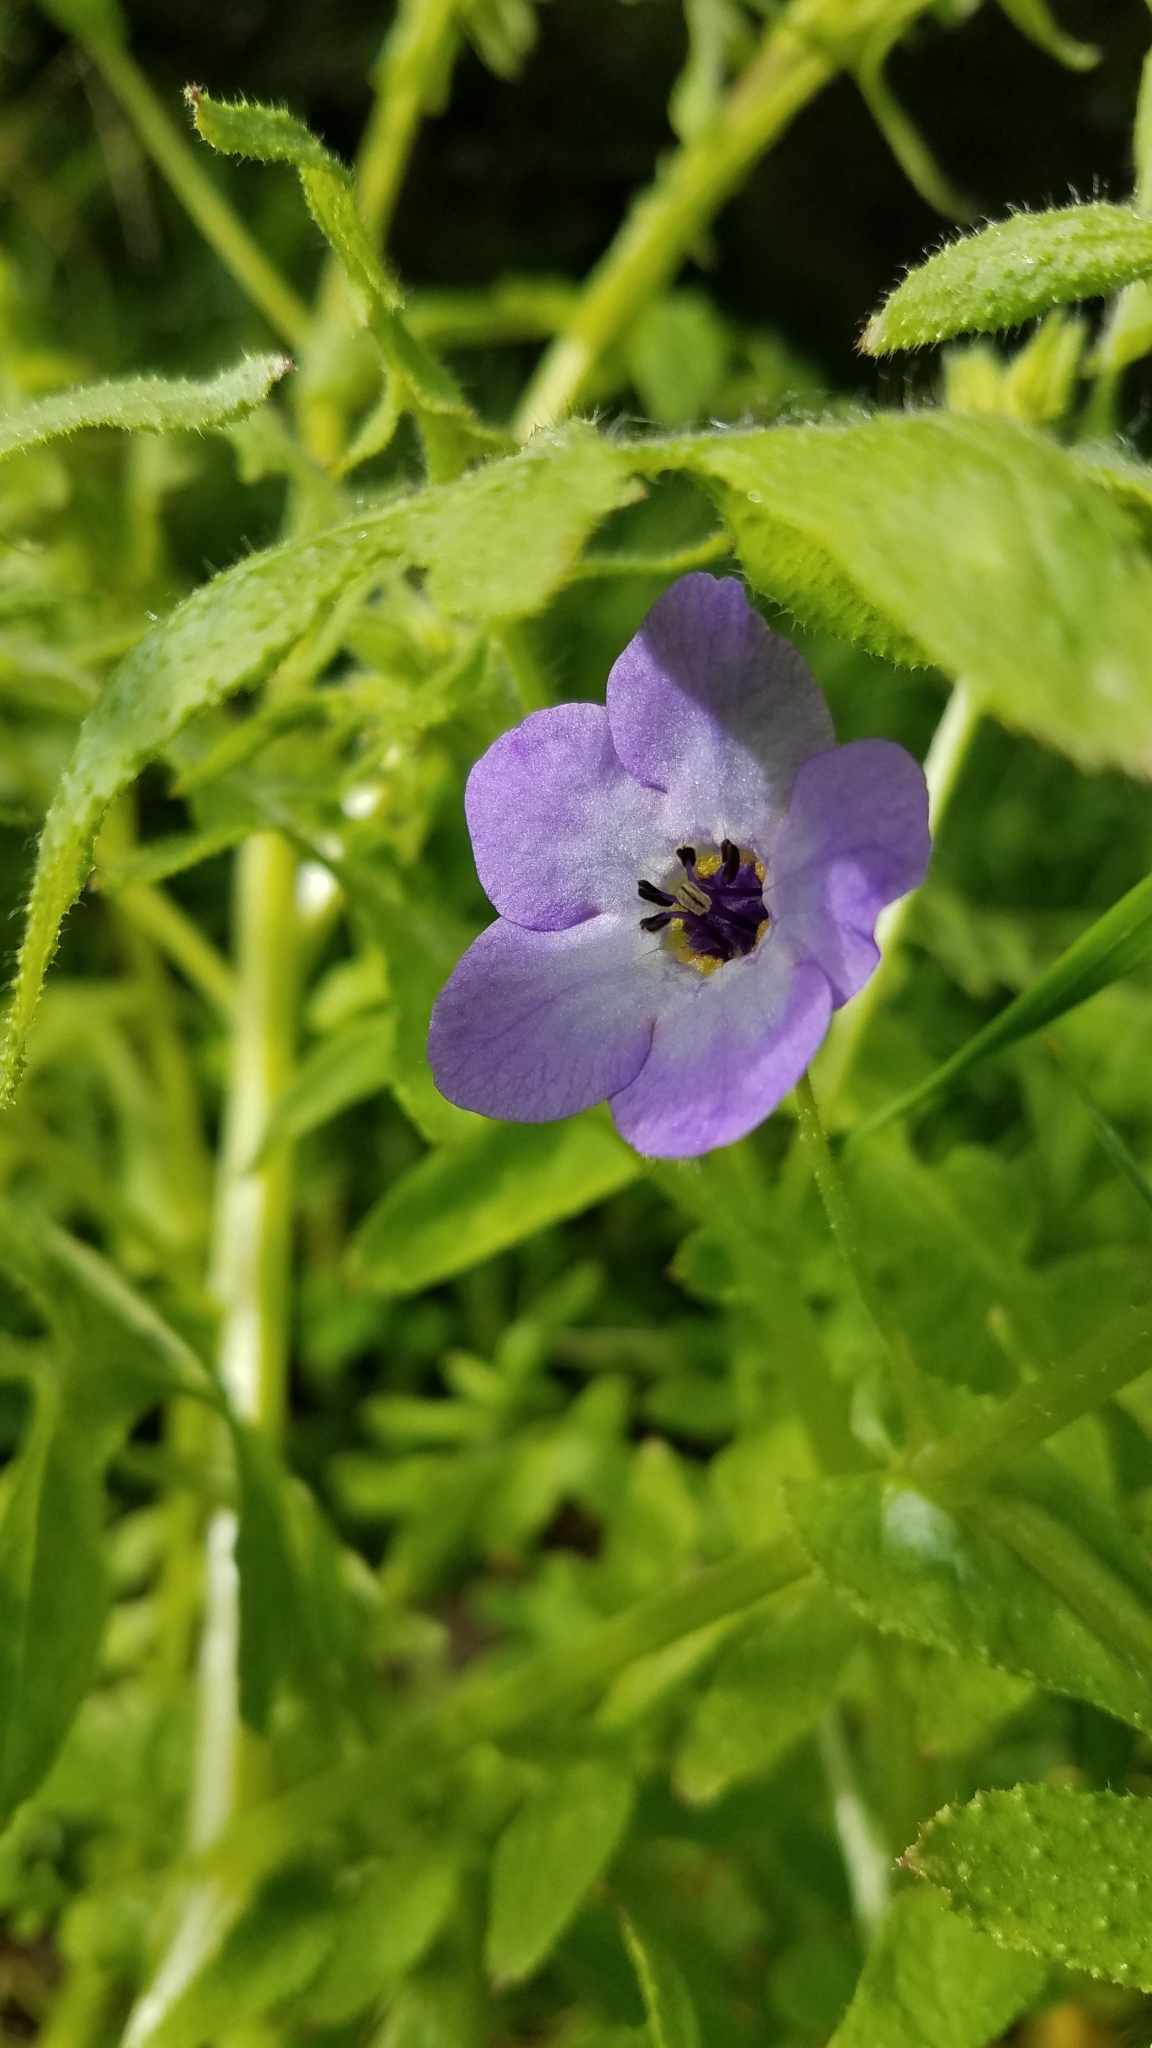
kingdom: Plantae
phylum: Tracheophyta
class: Magnoliopsida
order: Boraginales
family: Hydrophyllaceae
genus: Pholistoma
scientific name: Pholistoma auritum
